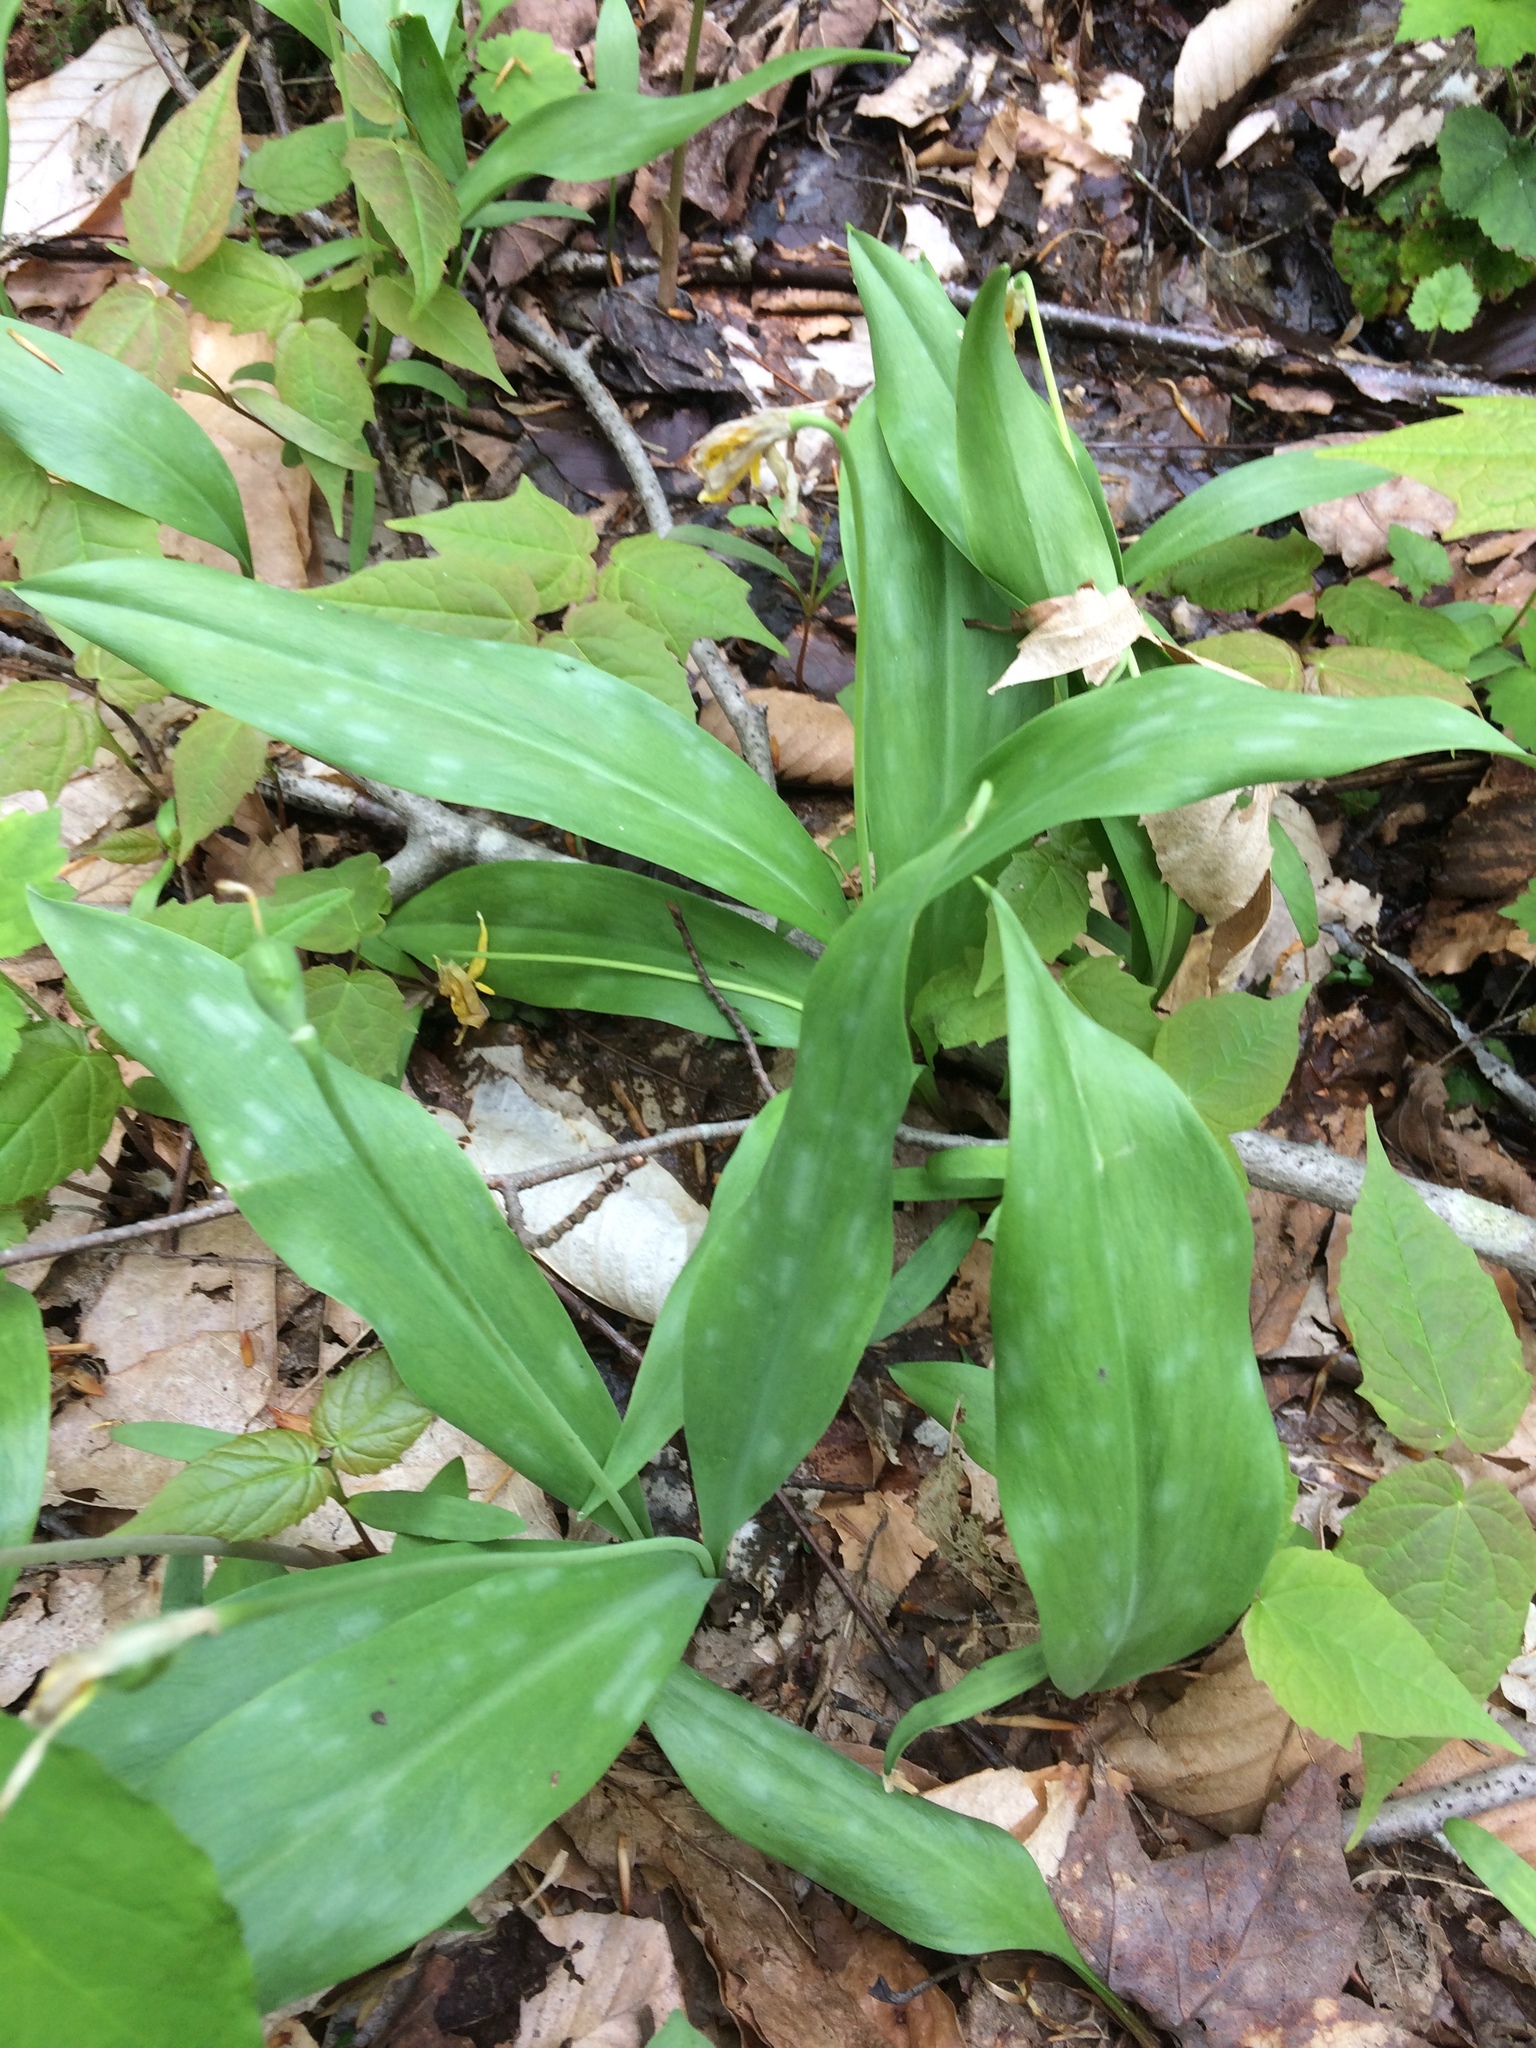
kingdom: Plantae
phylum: Tracheophyta
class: Liliopsida
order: Liliales
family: Liliaceae
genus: Erythronium
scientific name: Erythronium americanum
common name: Yellow adder's-tongue
